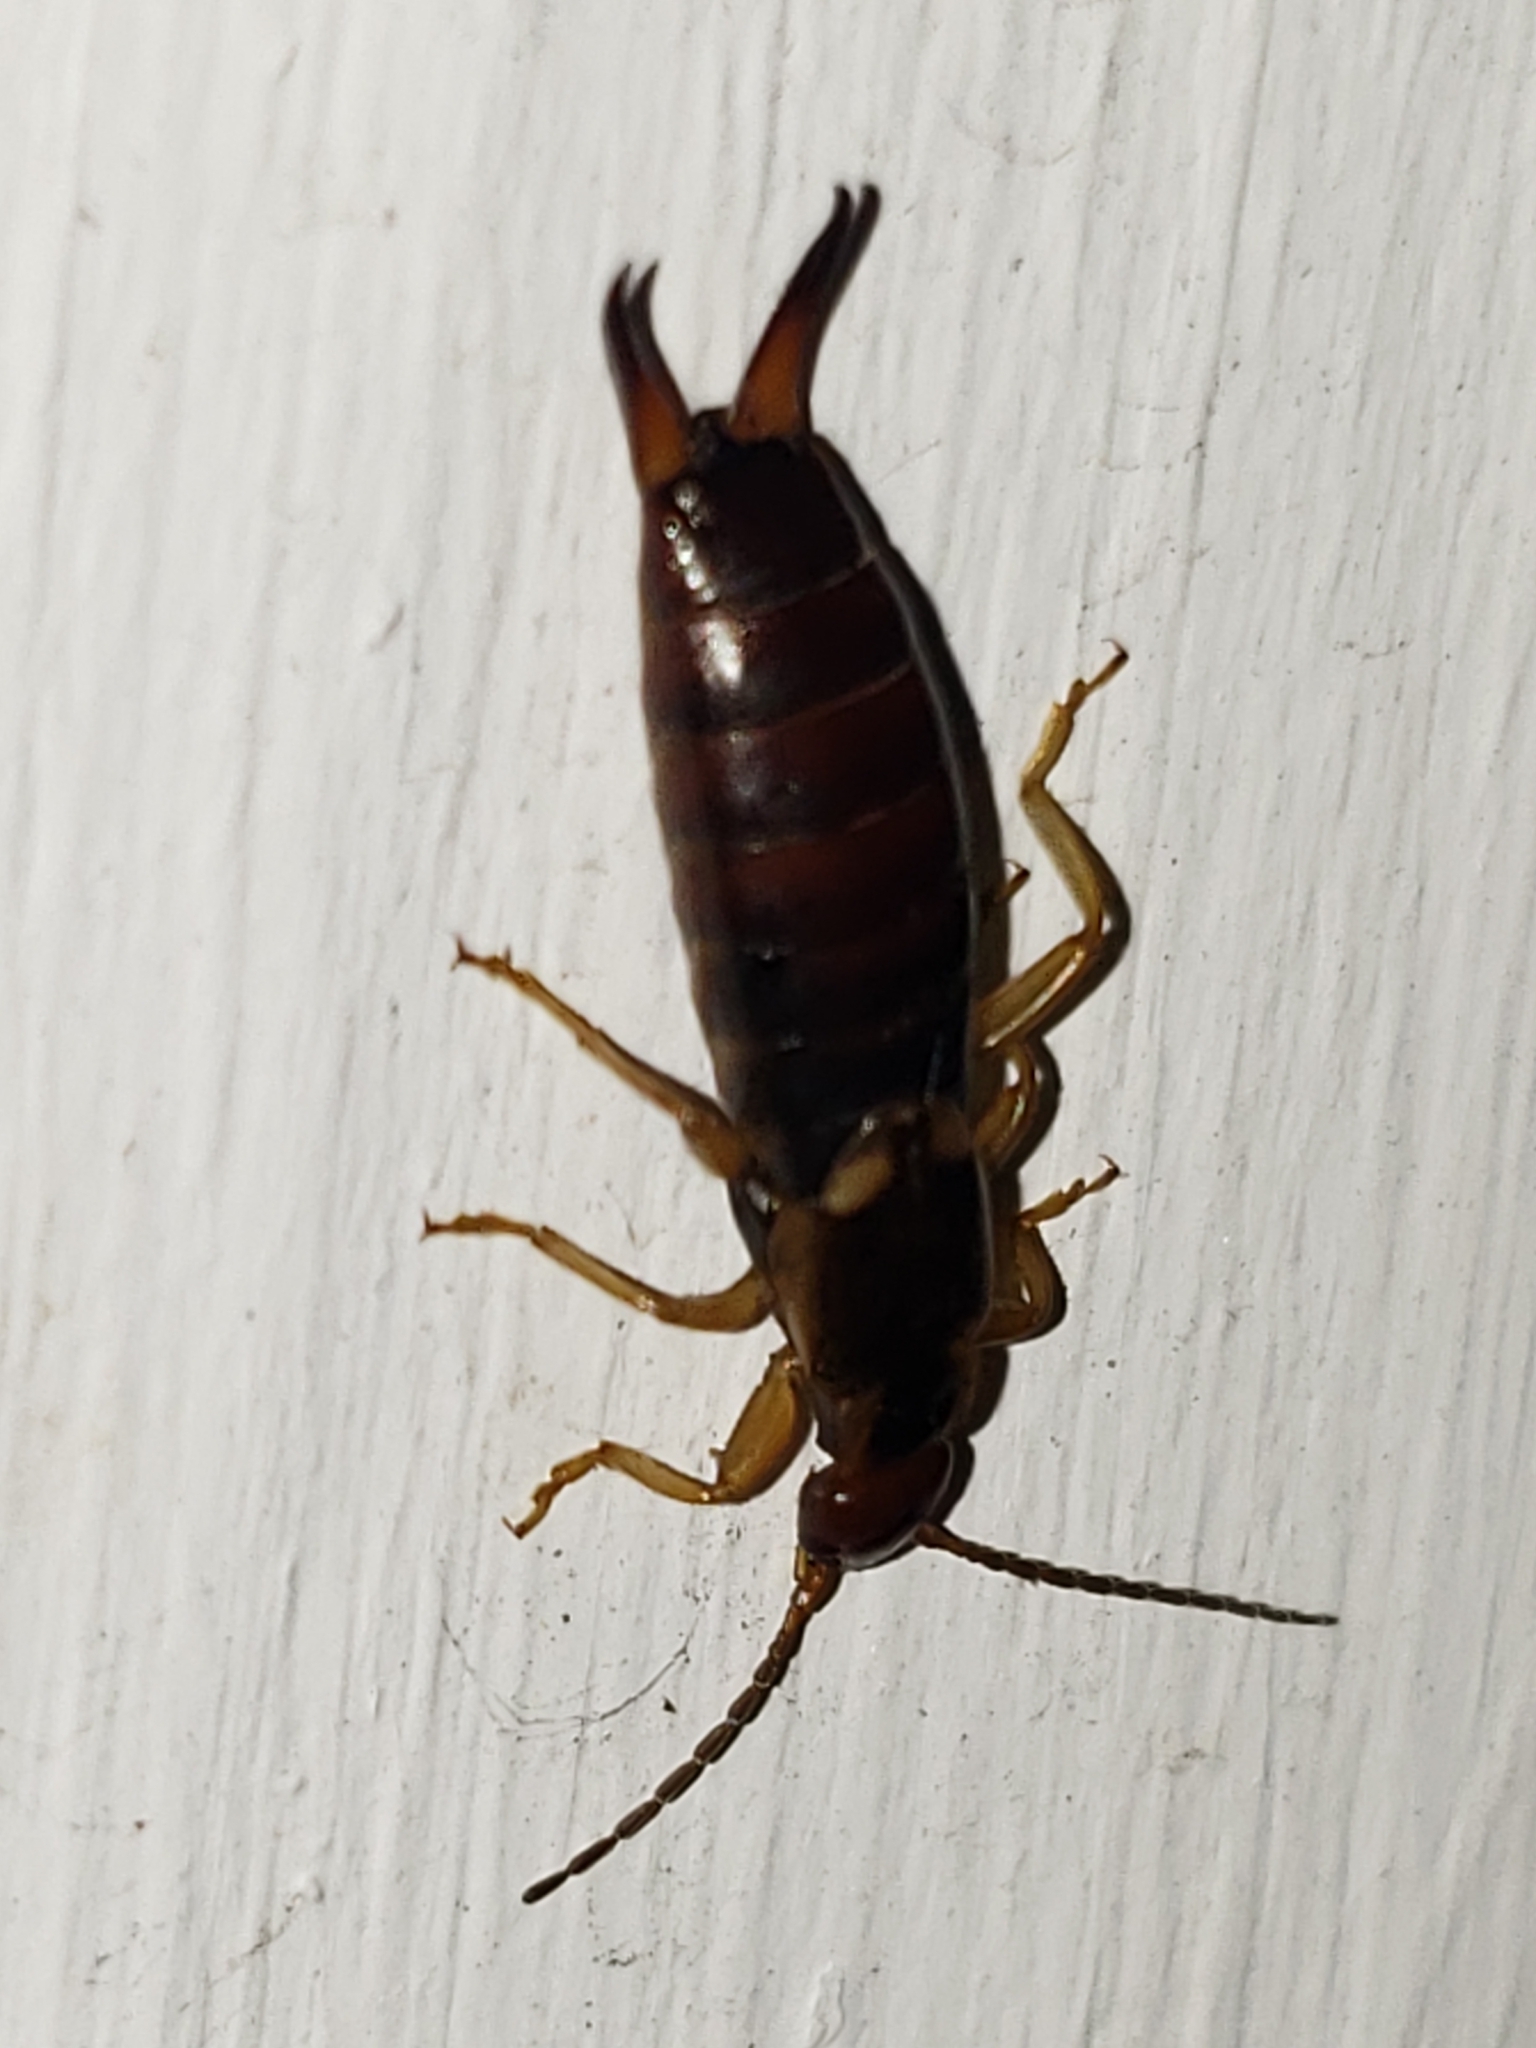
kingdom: Animalia
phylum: Arthropoda
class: Insecta
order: Dermaptera
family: Forficulidae
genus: Forficula
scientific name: Forficula
